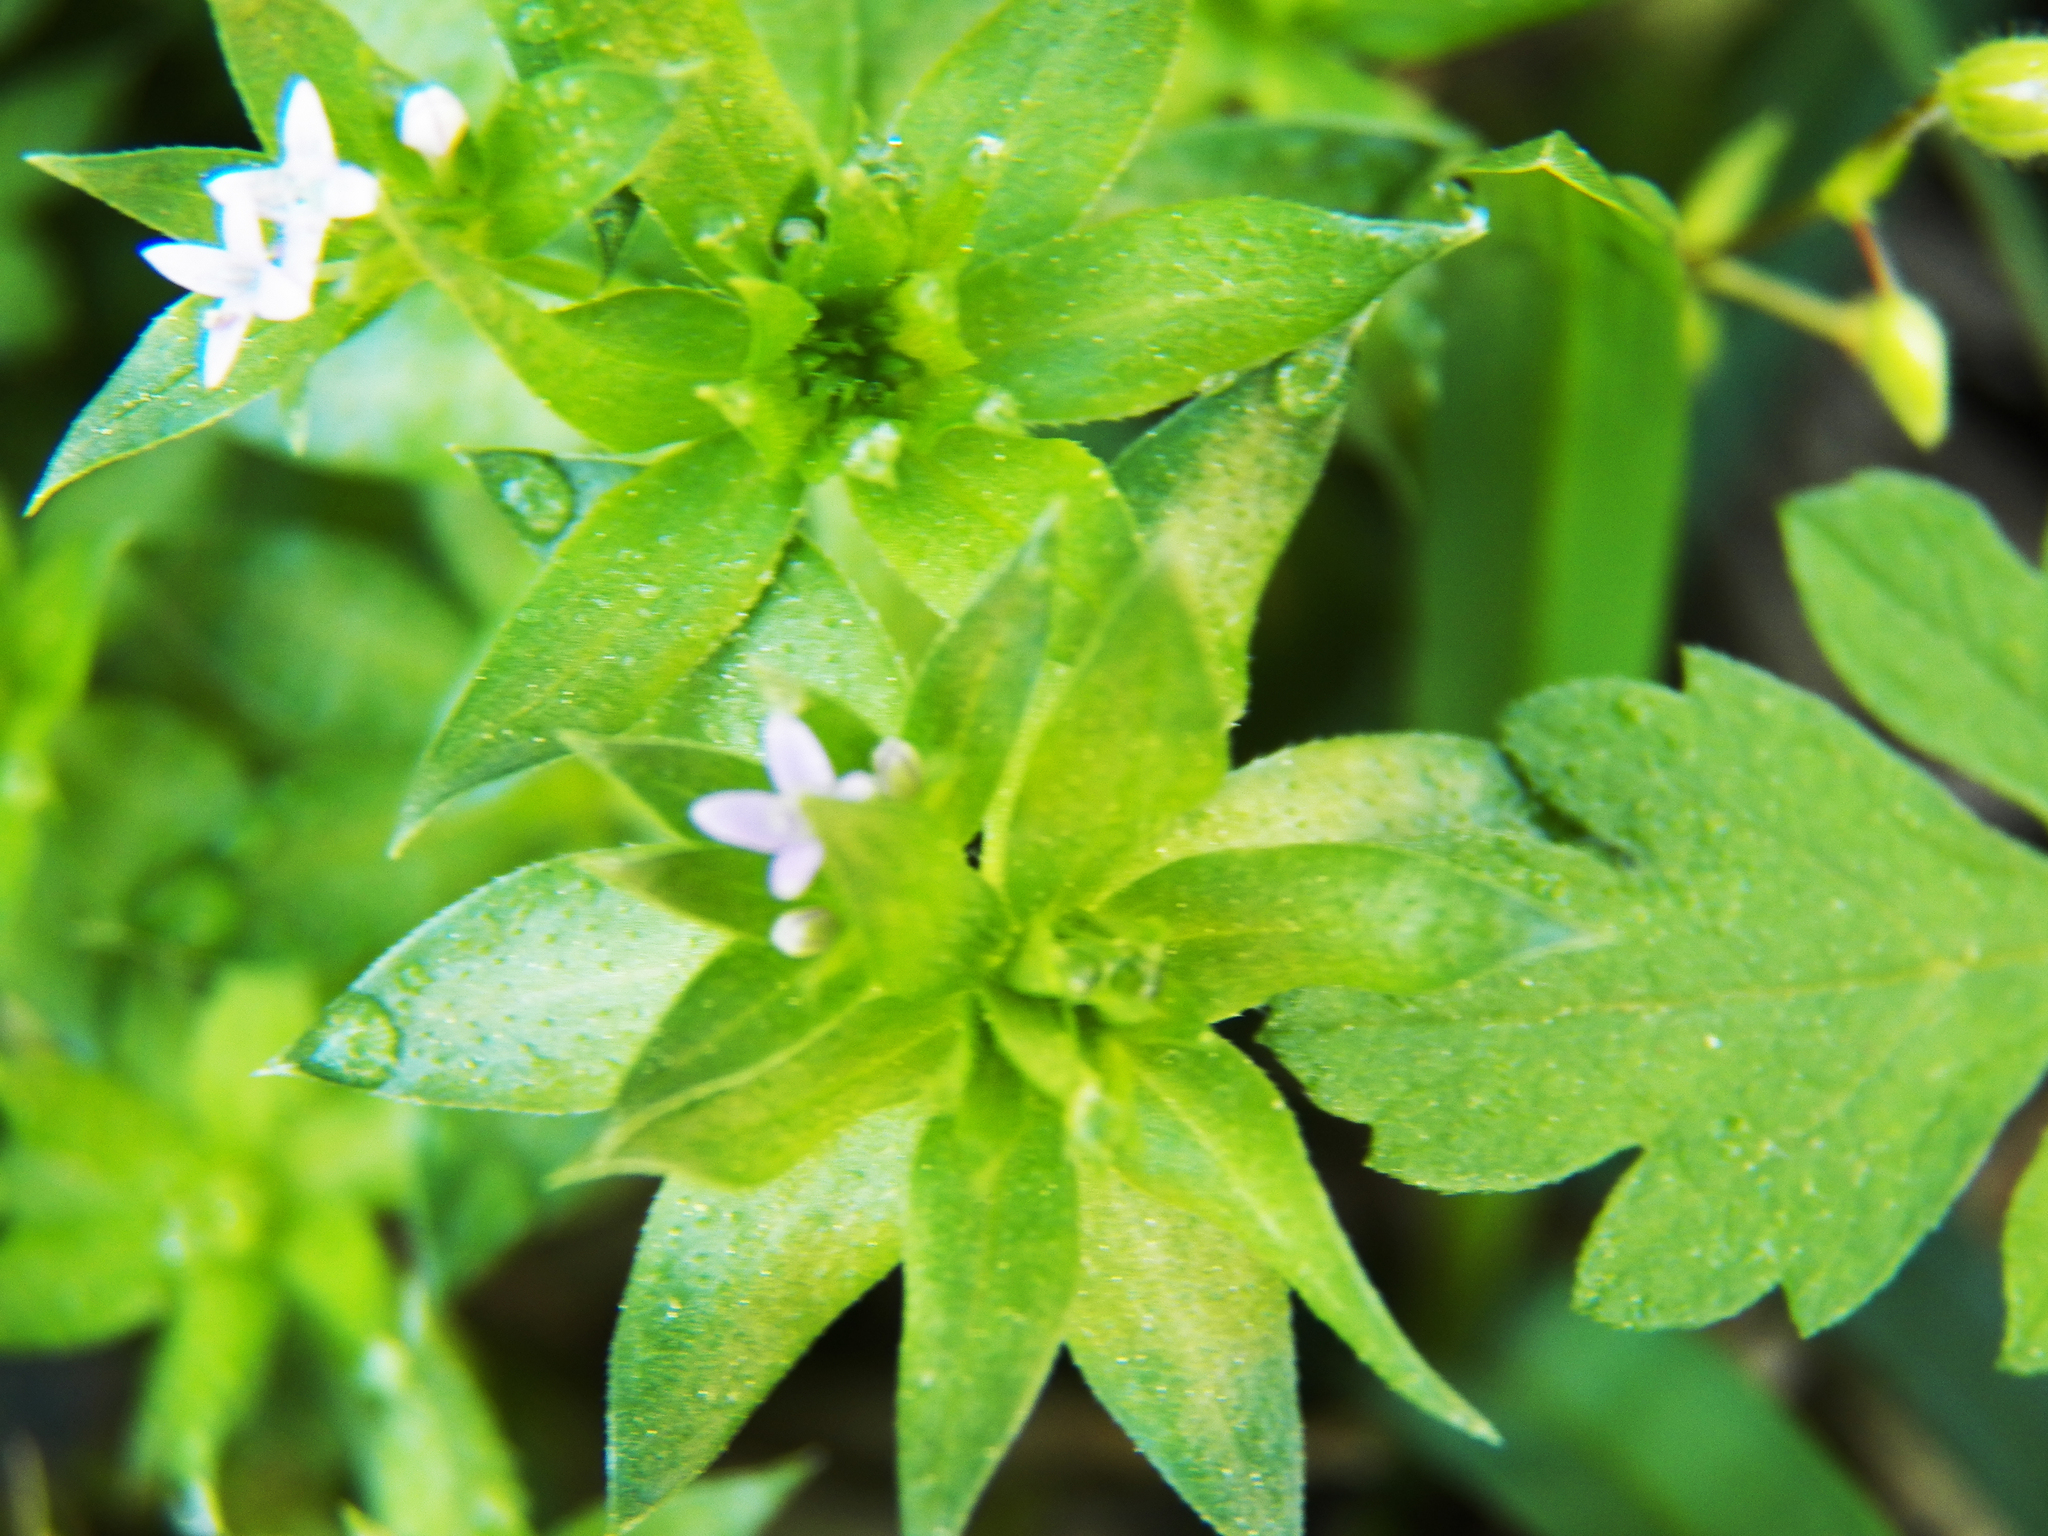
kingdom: Plantae
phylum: Tracheophyta
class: Magnoliopsida
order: Gentianales
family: Rubiaceae
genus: Sherardia
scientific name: Sherardia arvensis
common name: Field madder
